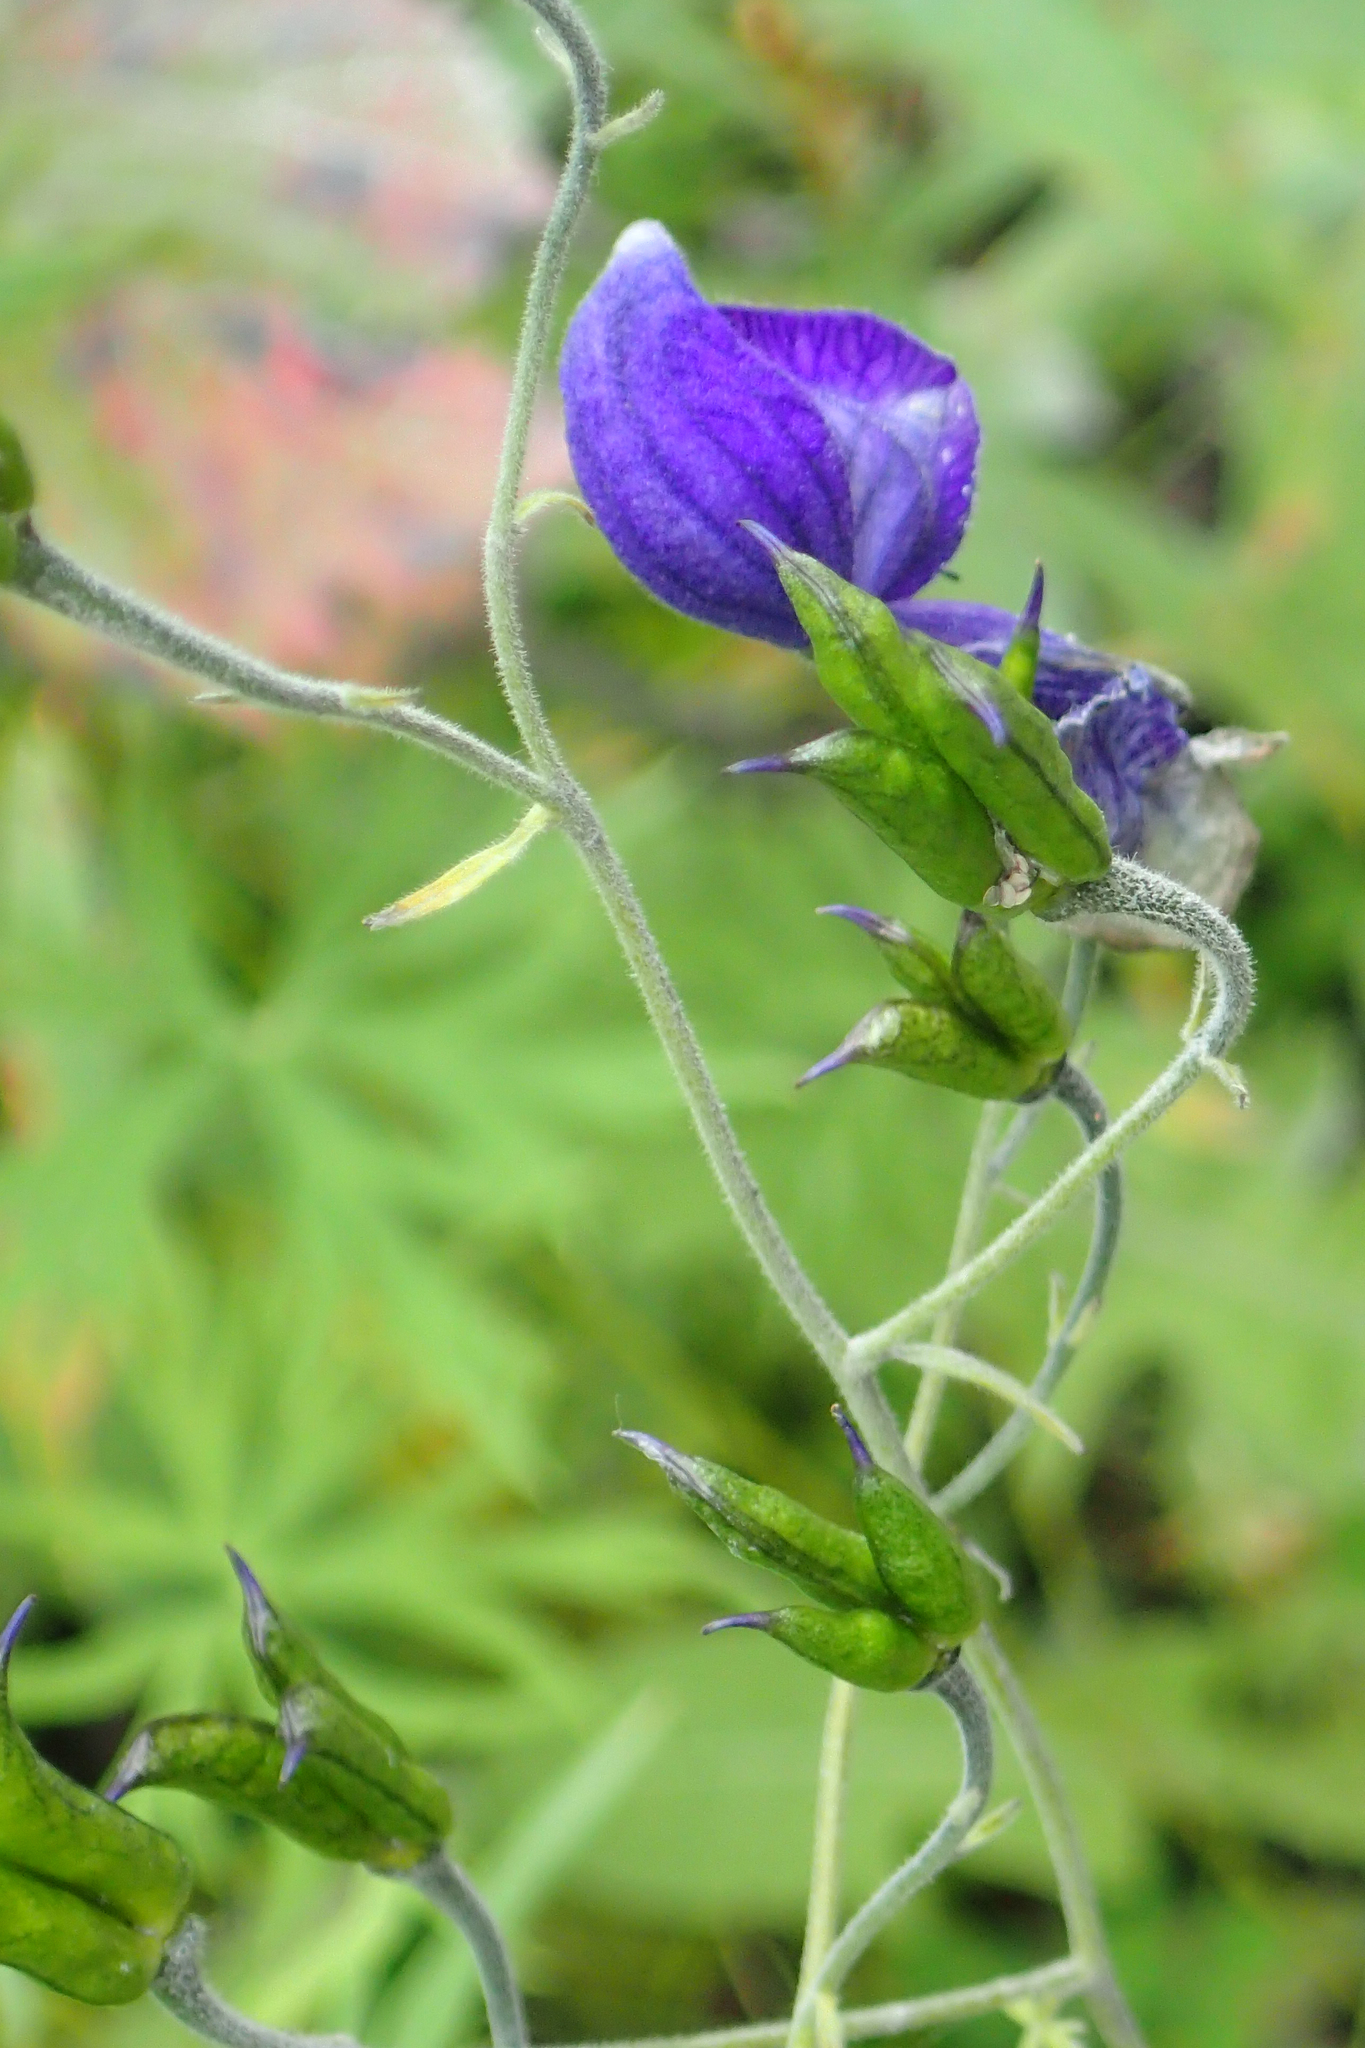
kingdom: Plantae
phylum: Tracheophyta
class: Magnoliopsida
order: Ranunculales
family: Ranunculaceae
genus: Aconitum
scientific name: Aconitum delphiniifolium
